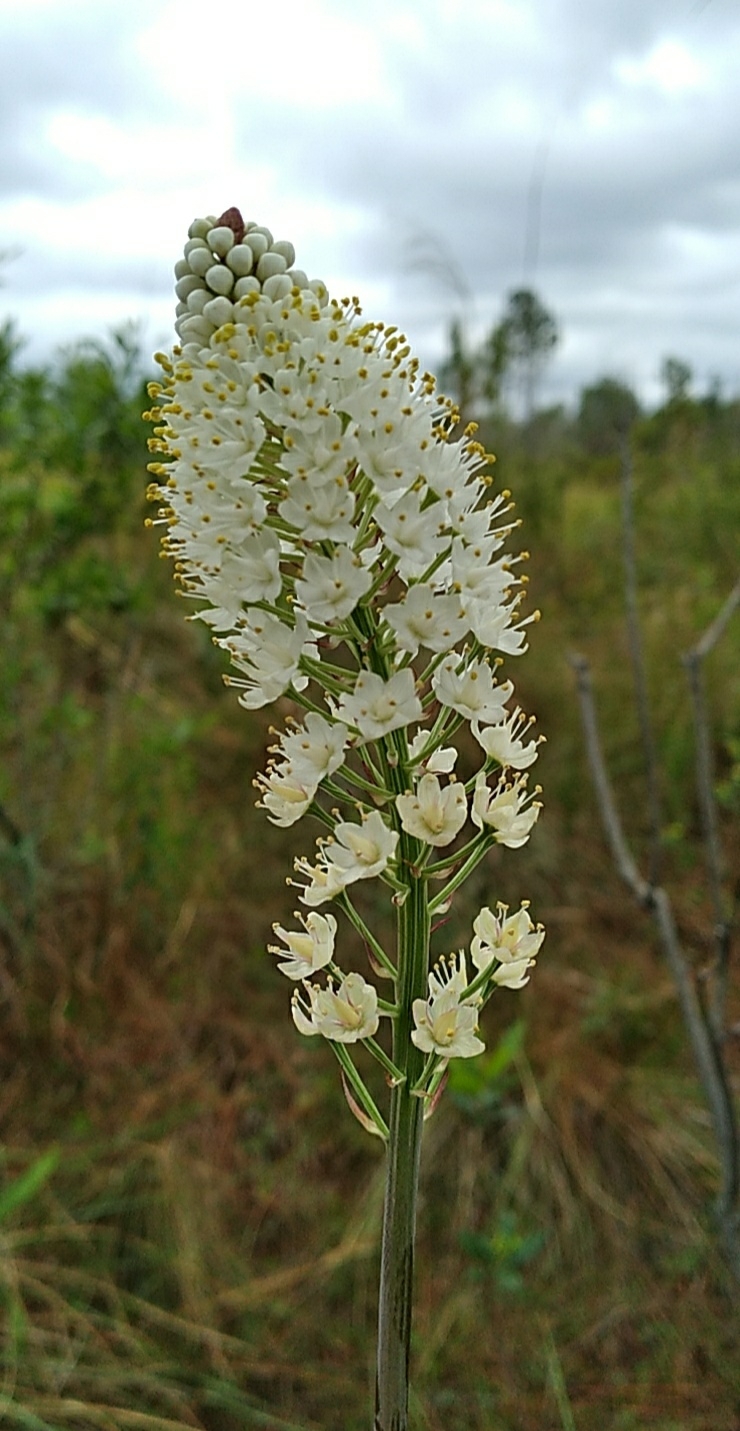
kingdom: Plantae
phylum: Tracheophyta
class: Liliopsida
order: Liliales
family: Melanthiaceae
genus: Stenanthium
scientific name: Stenanthium densum
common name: Crow-poison
